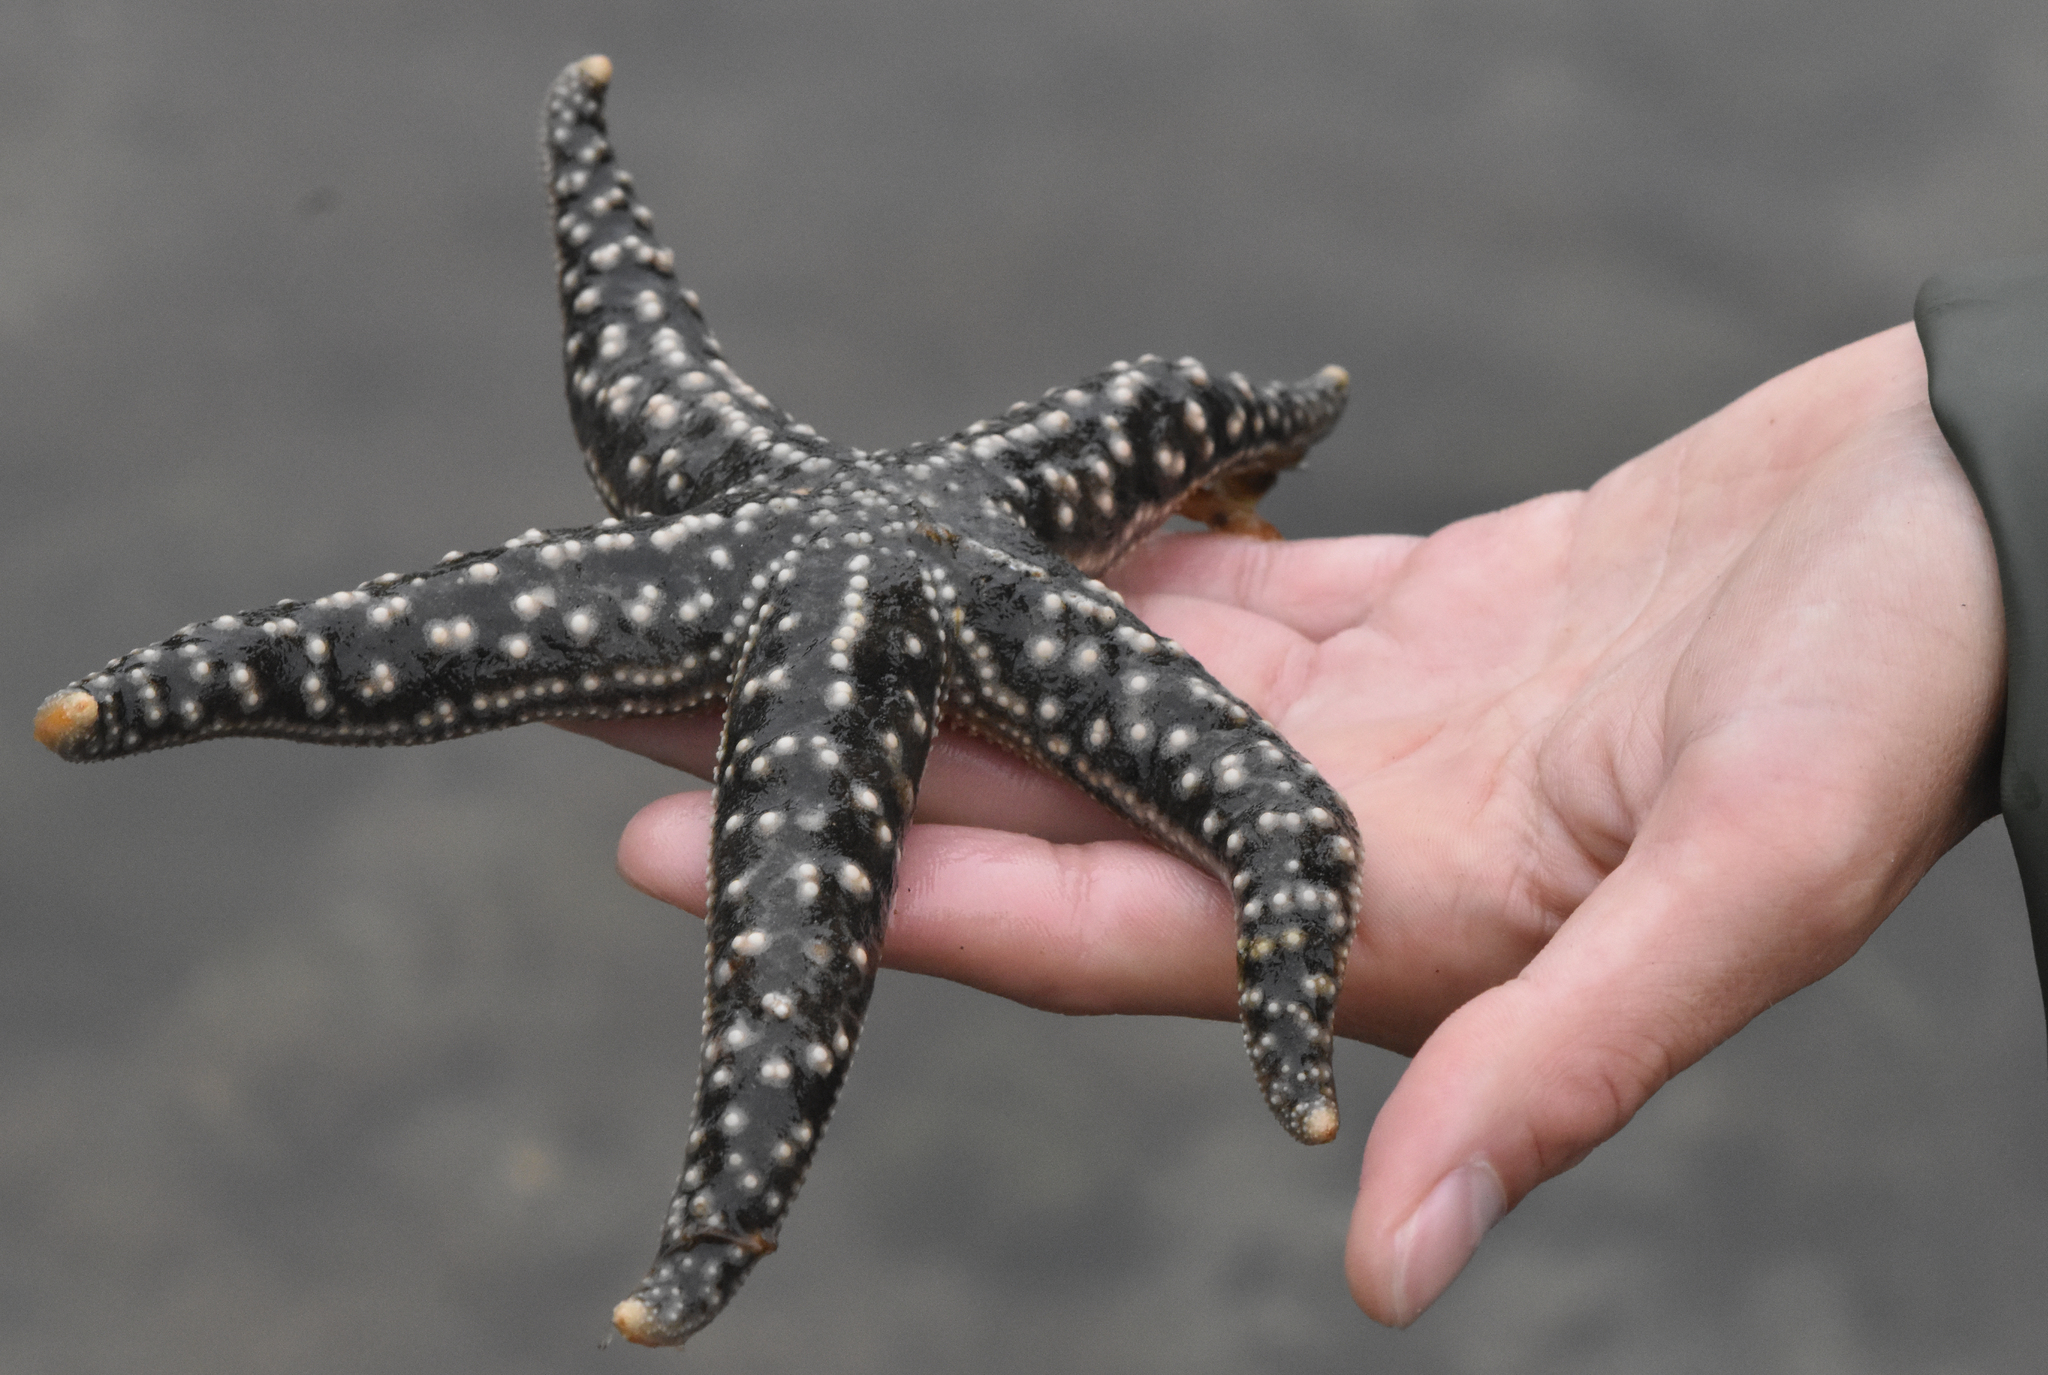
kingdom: Animalia
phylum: Echinodermata
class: Asteroidea
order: Forcipulatida
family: Asteriidae
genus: Evasterias
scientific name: Evasterias troschelii
